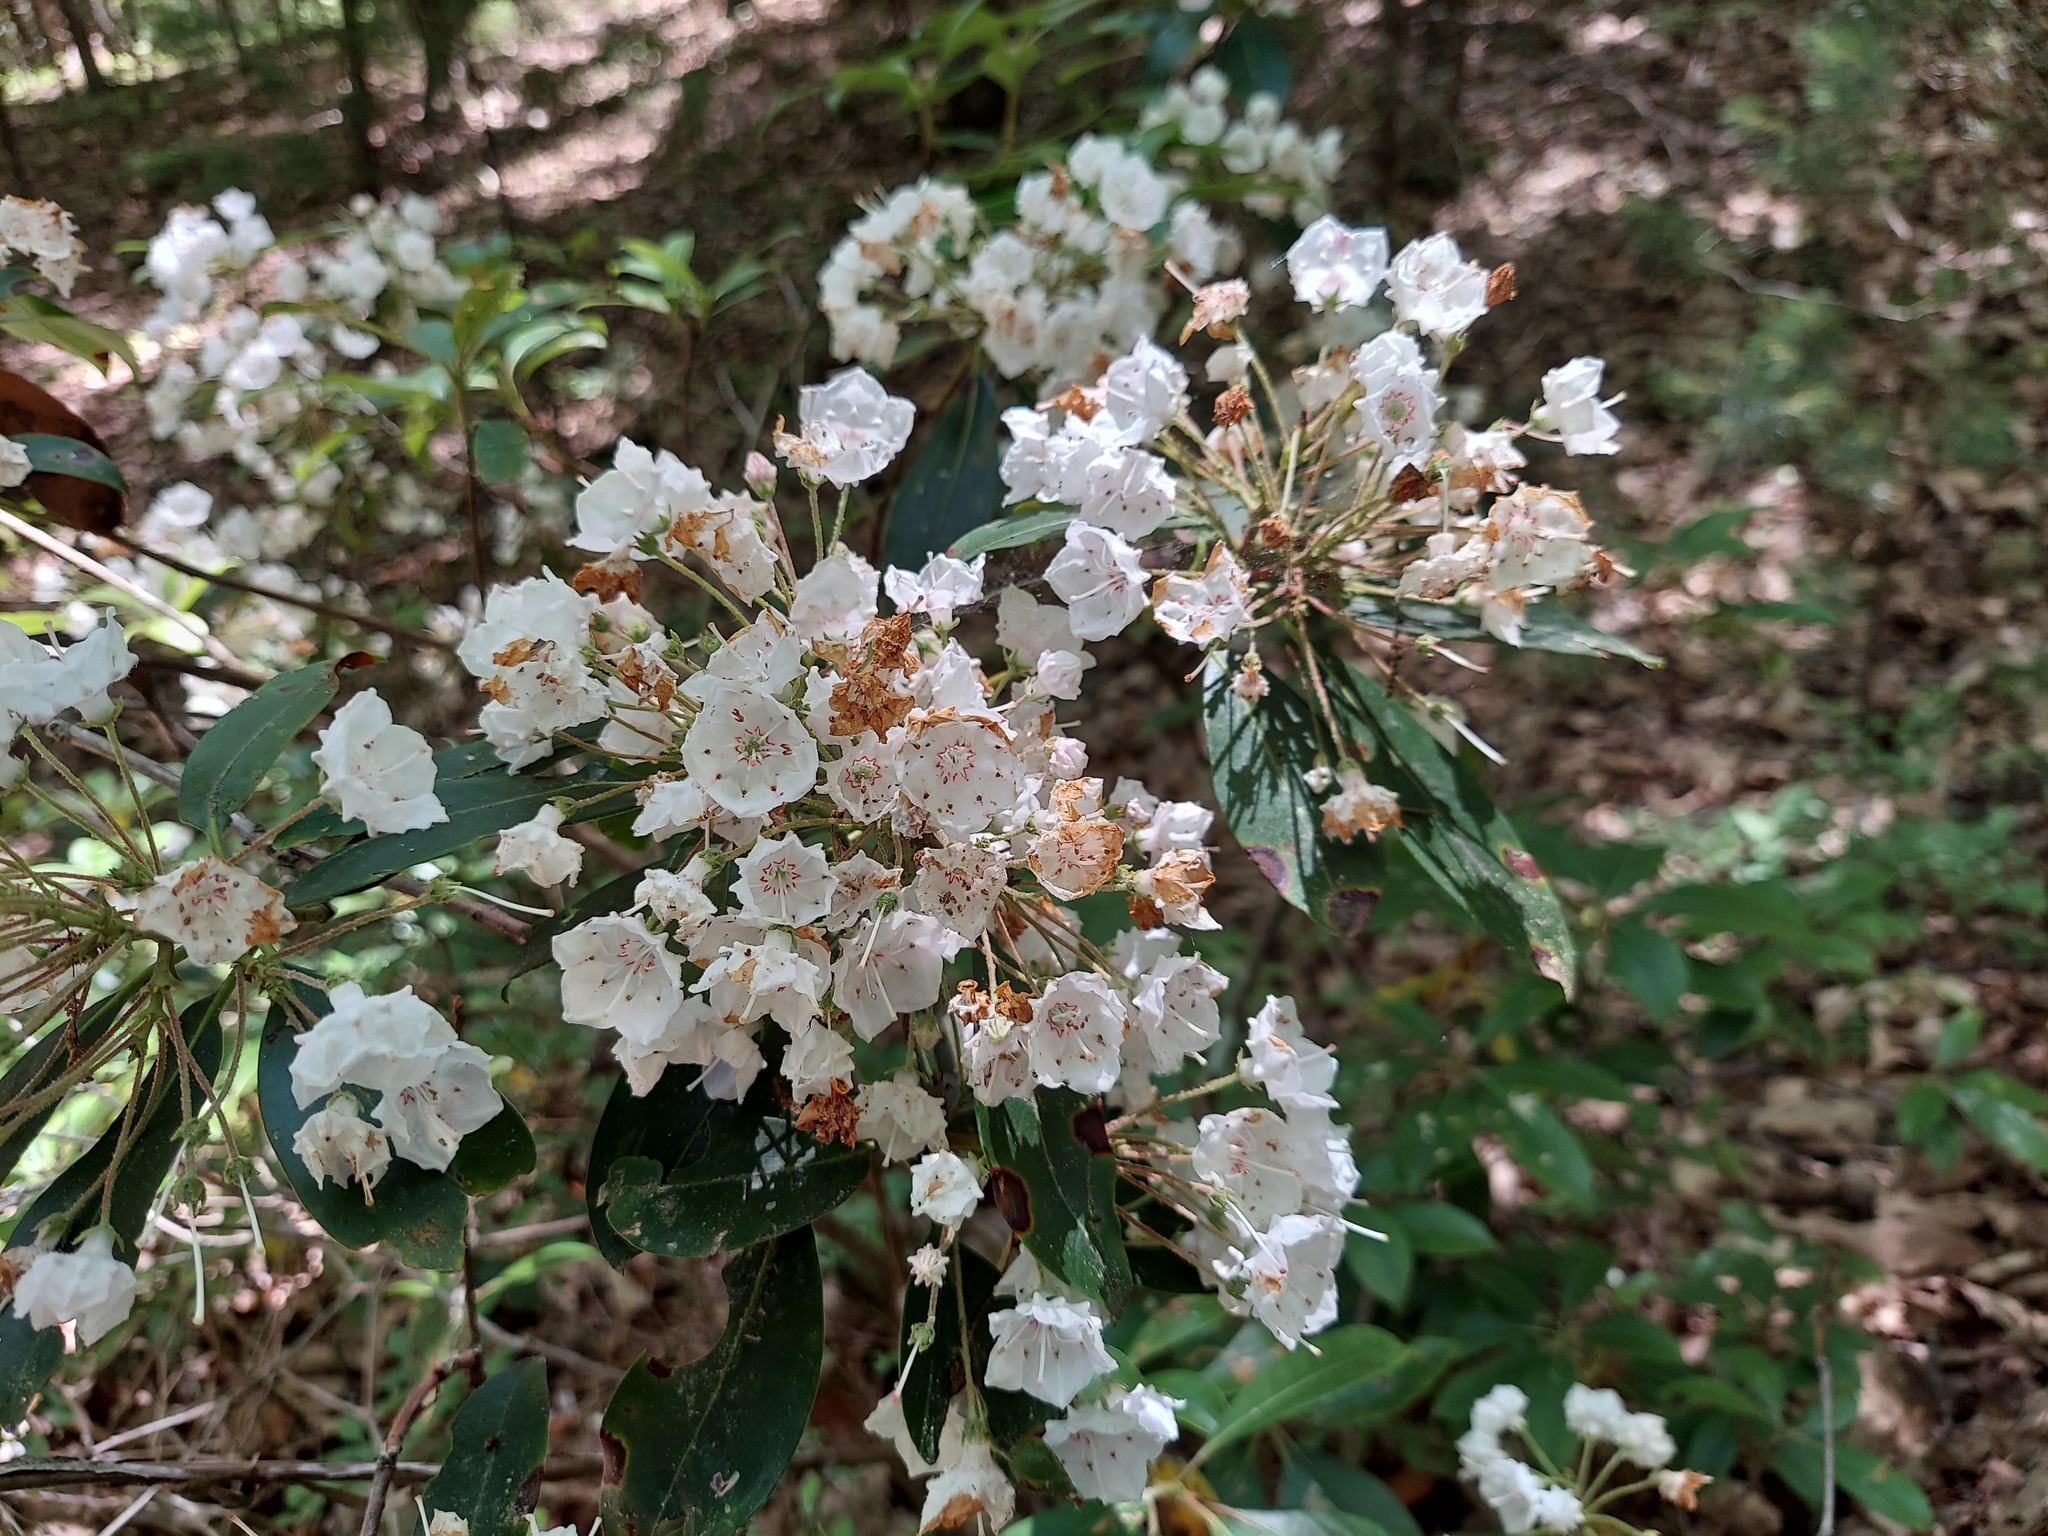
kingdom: Plantae
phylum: Tracheophyta
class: Magnoliopsida
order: Ericales
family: Ericaceae
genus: Kalmia
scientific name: Kalmia latifolia
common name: Mountain-laurel
